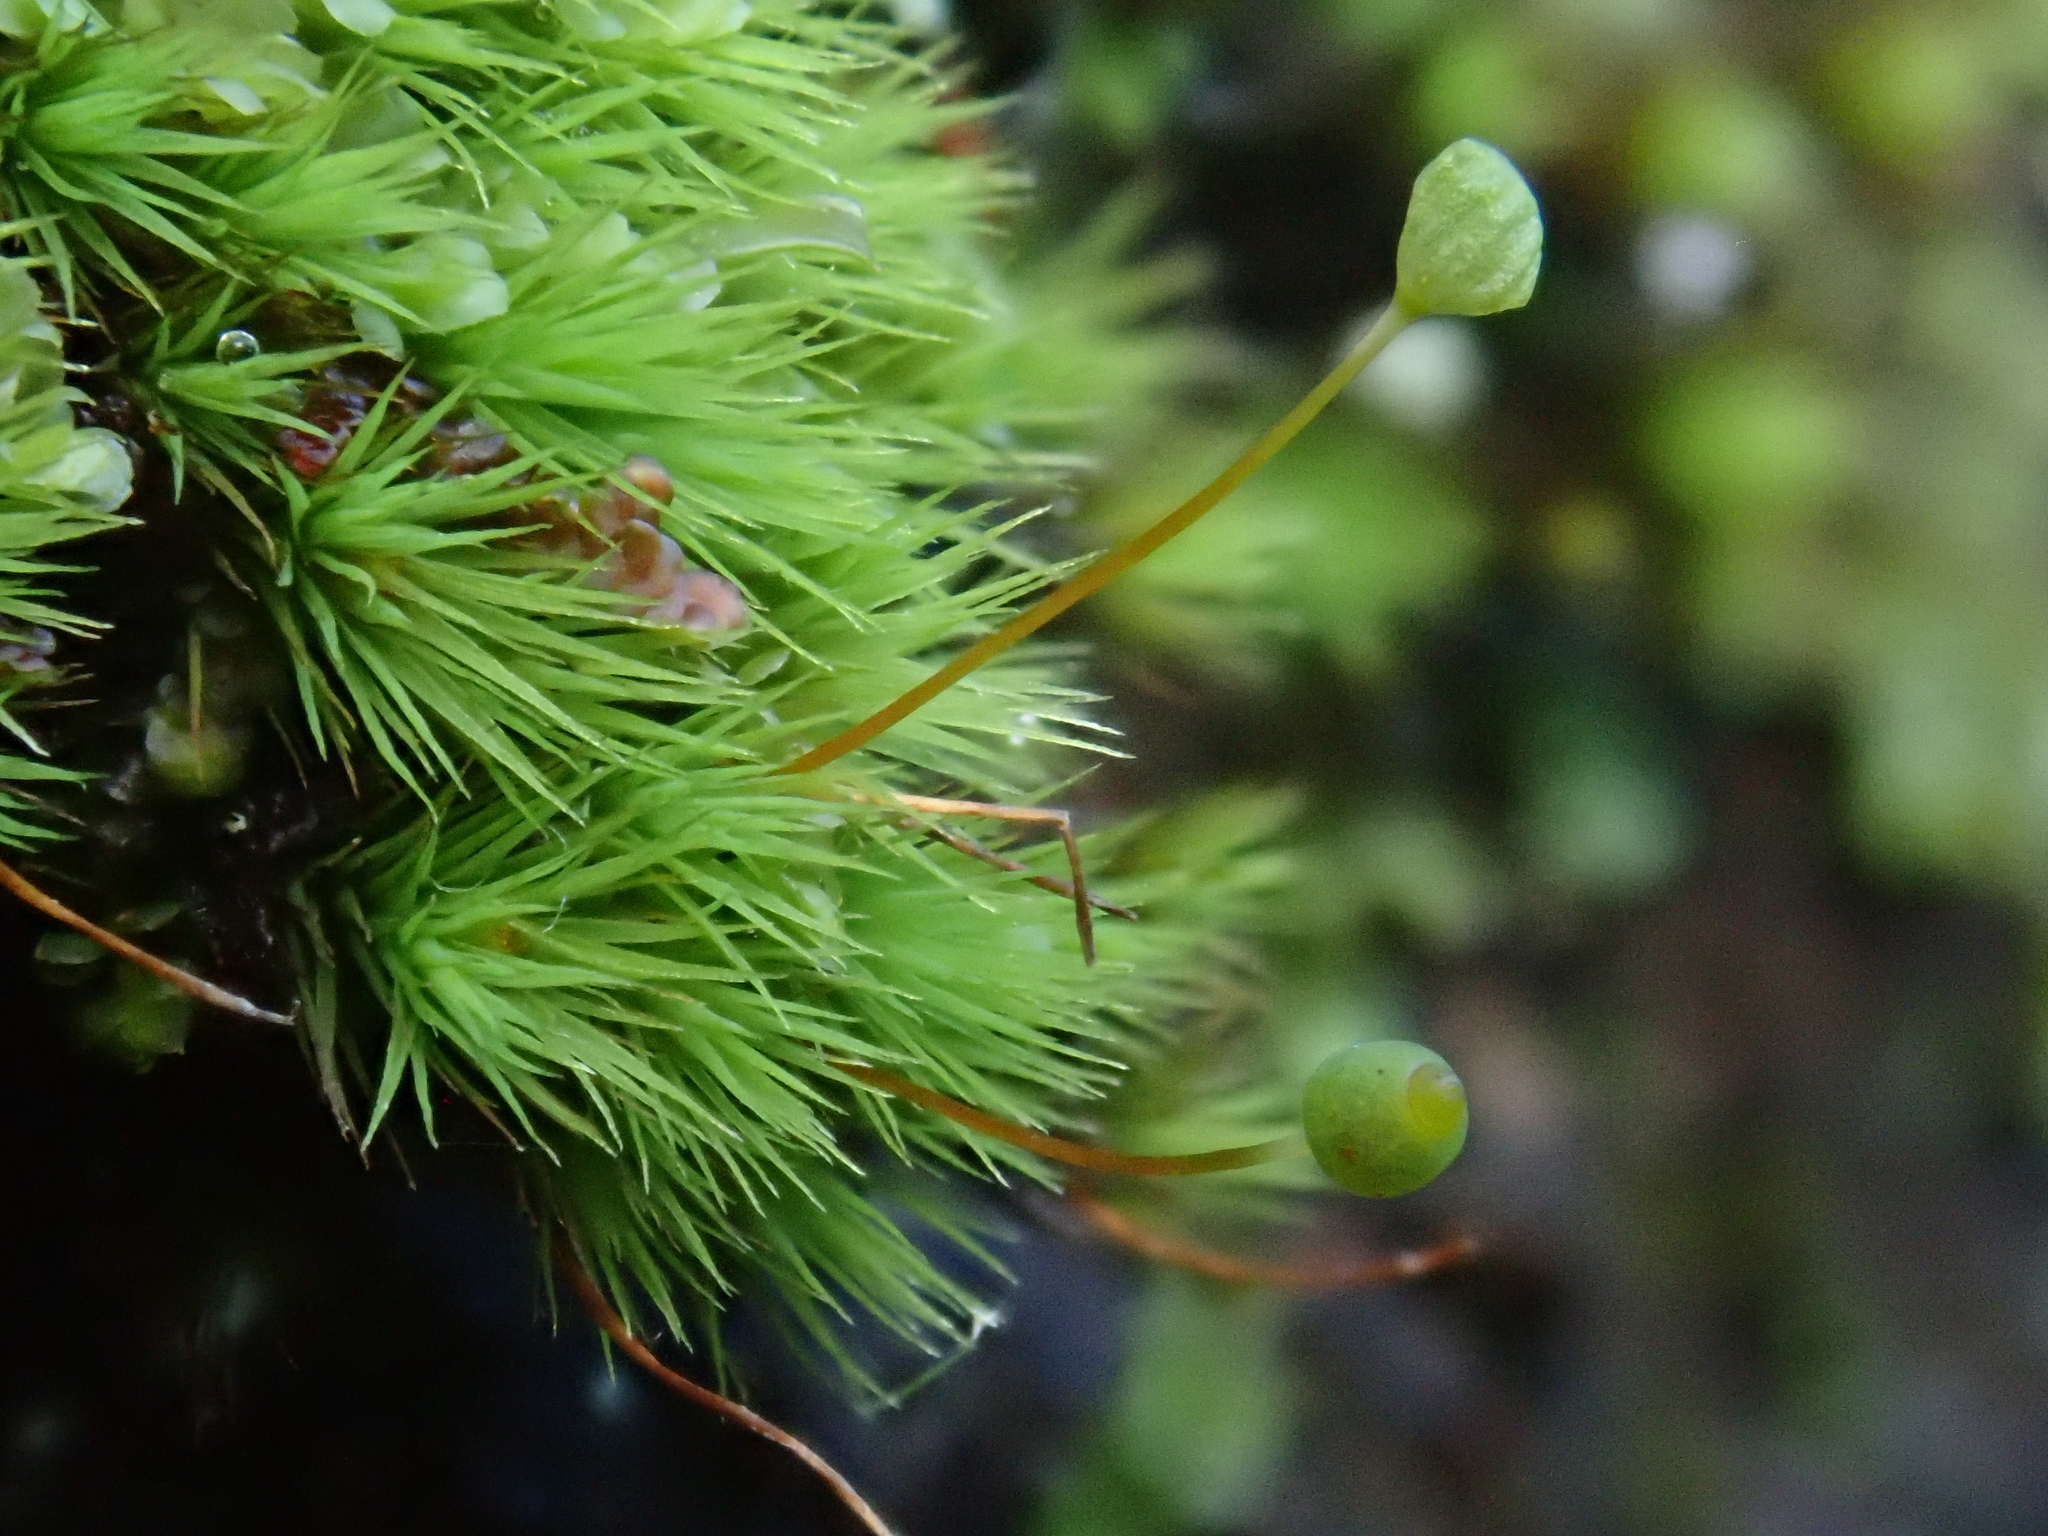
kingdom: Plantae
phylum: Bryophyta
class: Bryopsida
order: Bartramiales
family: Bartramiaceae
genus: Bartramia
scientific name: Bartramia aprica
